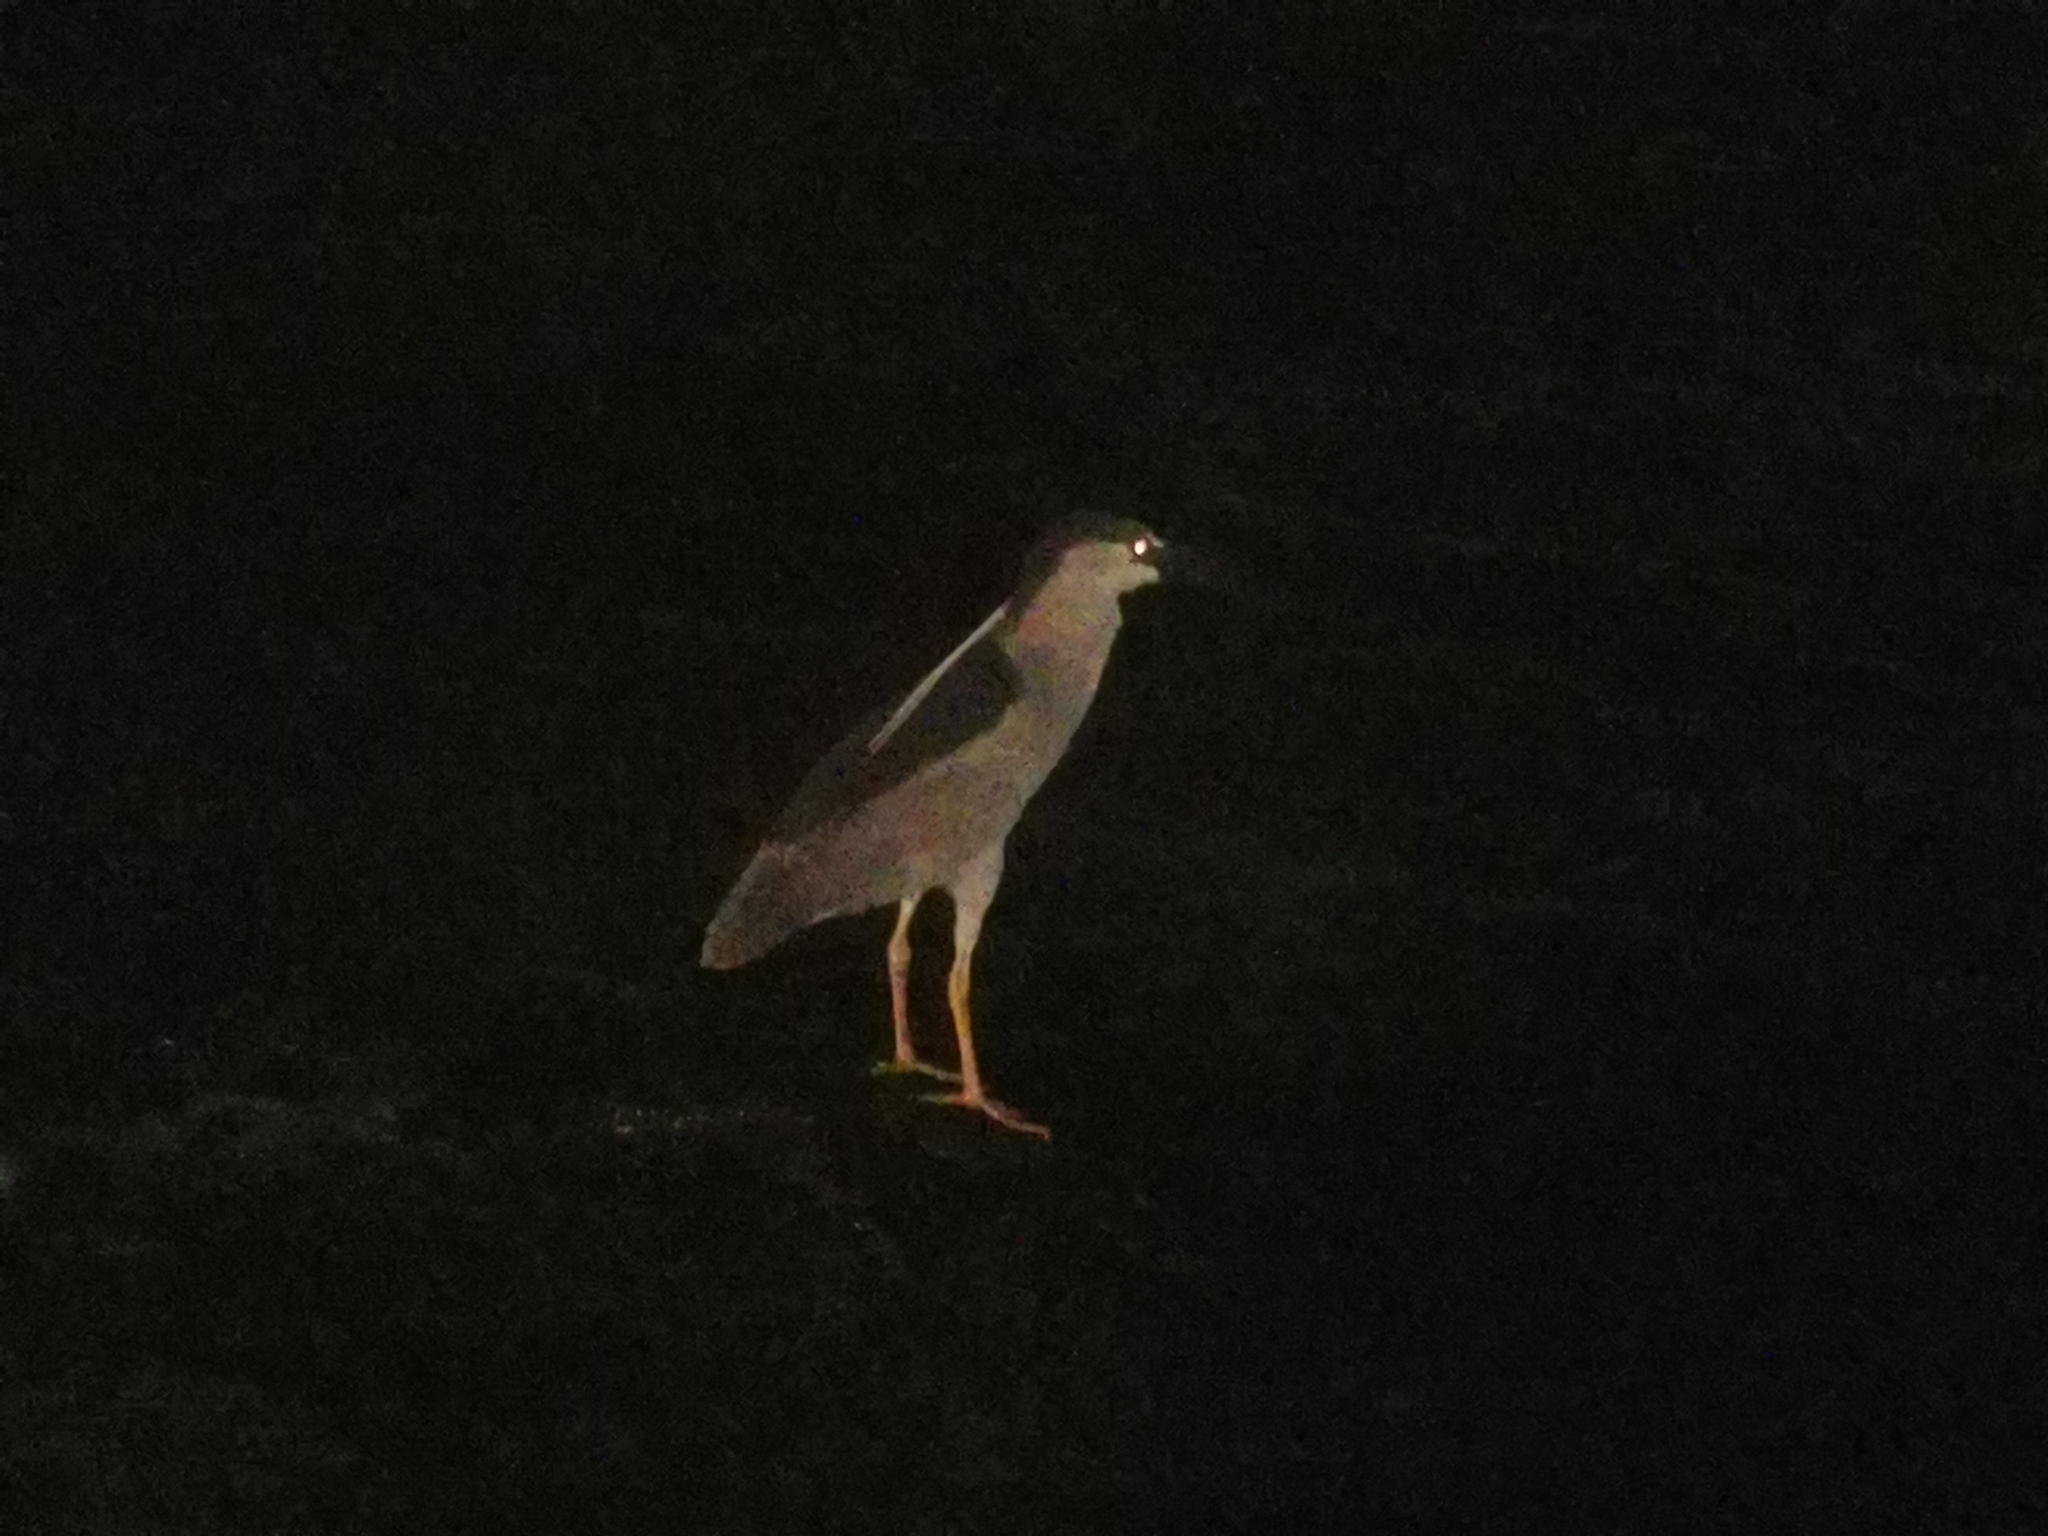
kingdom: Animalia
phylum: Chordata
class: Aves
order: Pelecaniformes
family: Ardeidae
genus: Nycticorax
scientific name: Nycticorax nycticorax
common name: Black-crowned night heron
